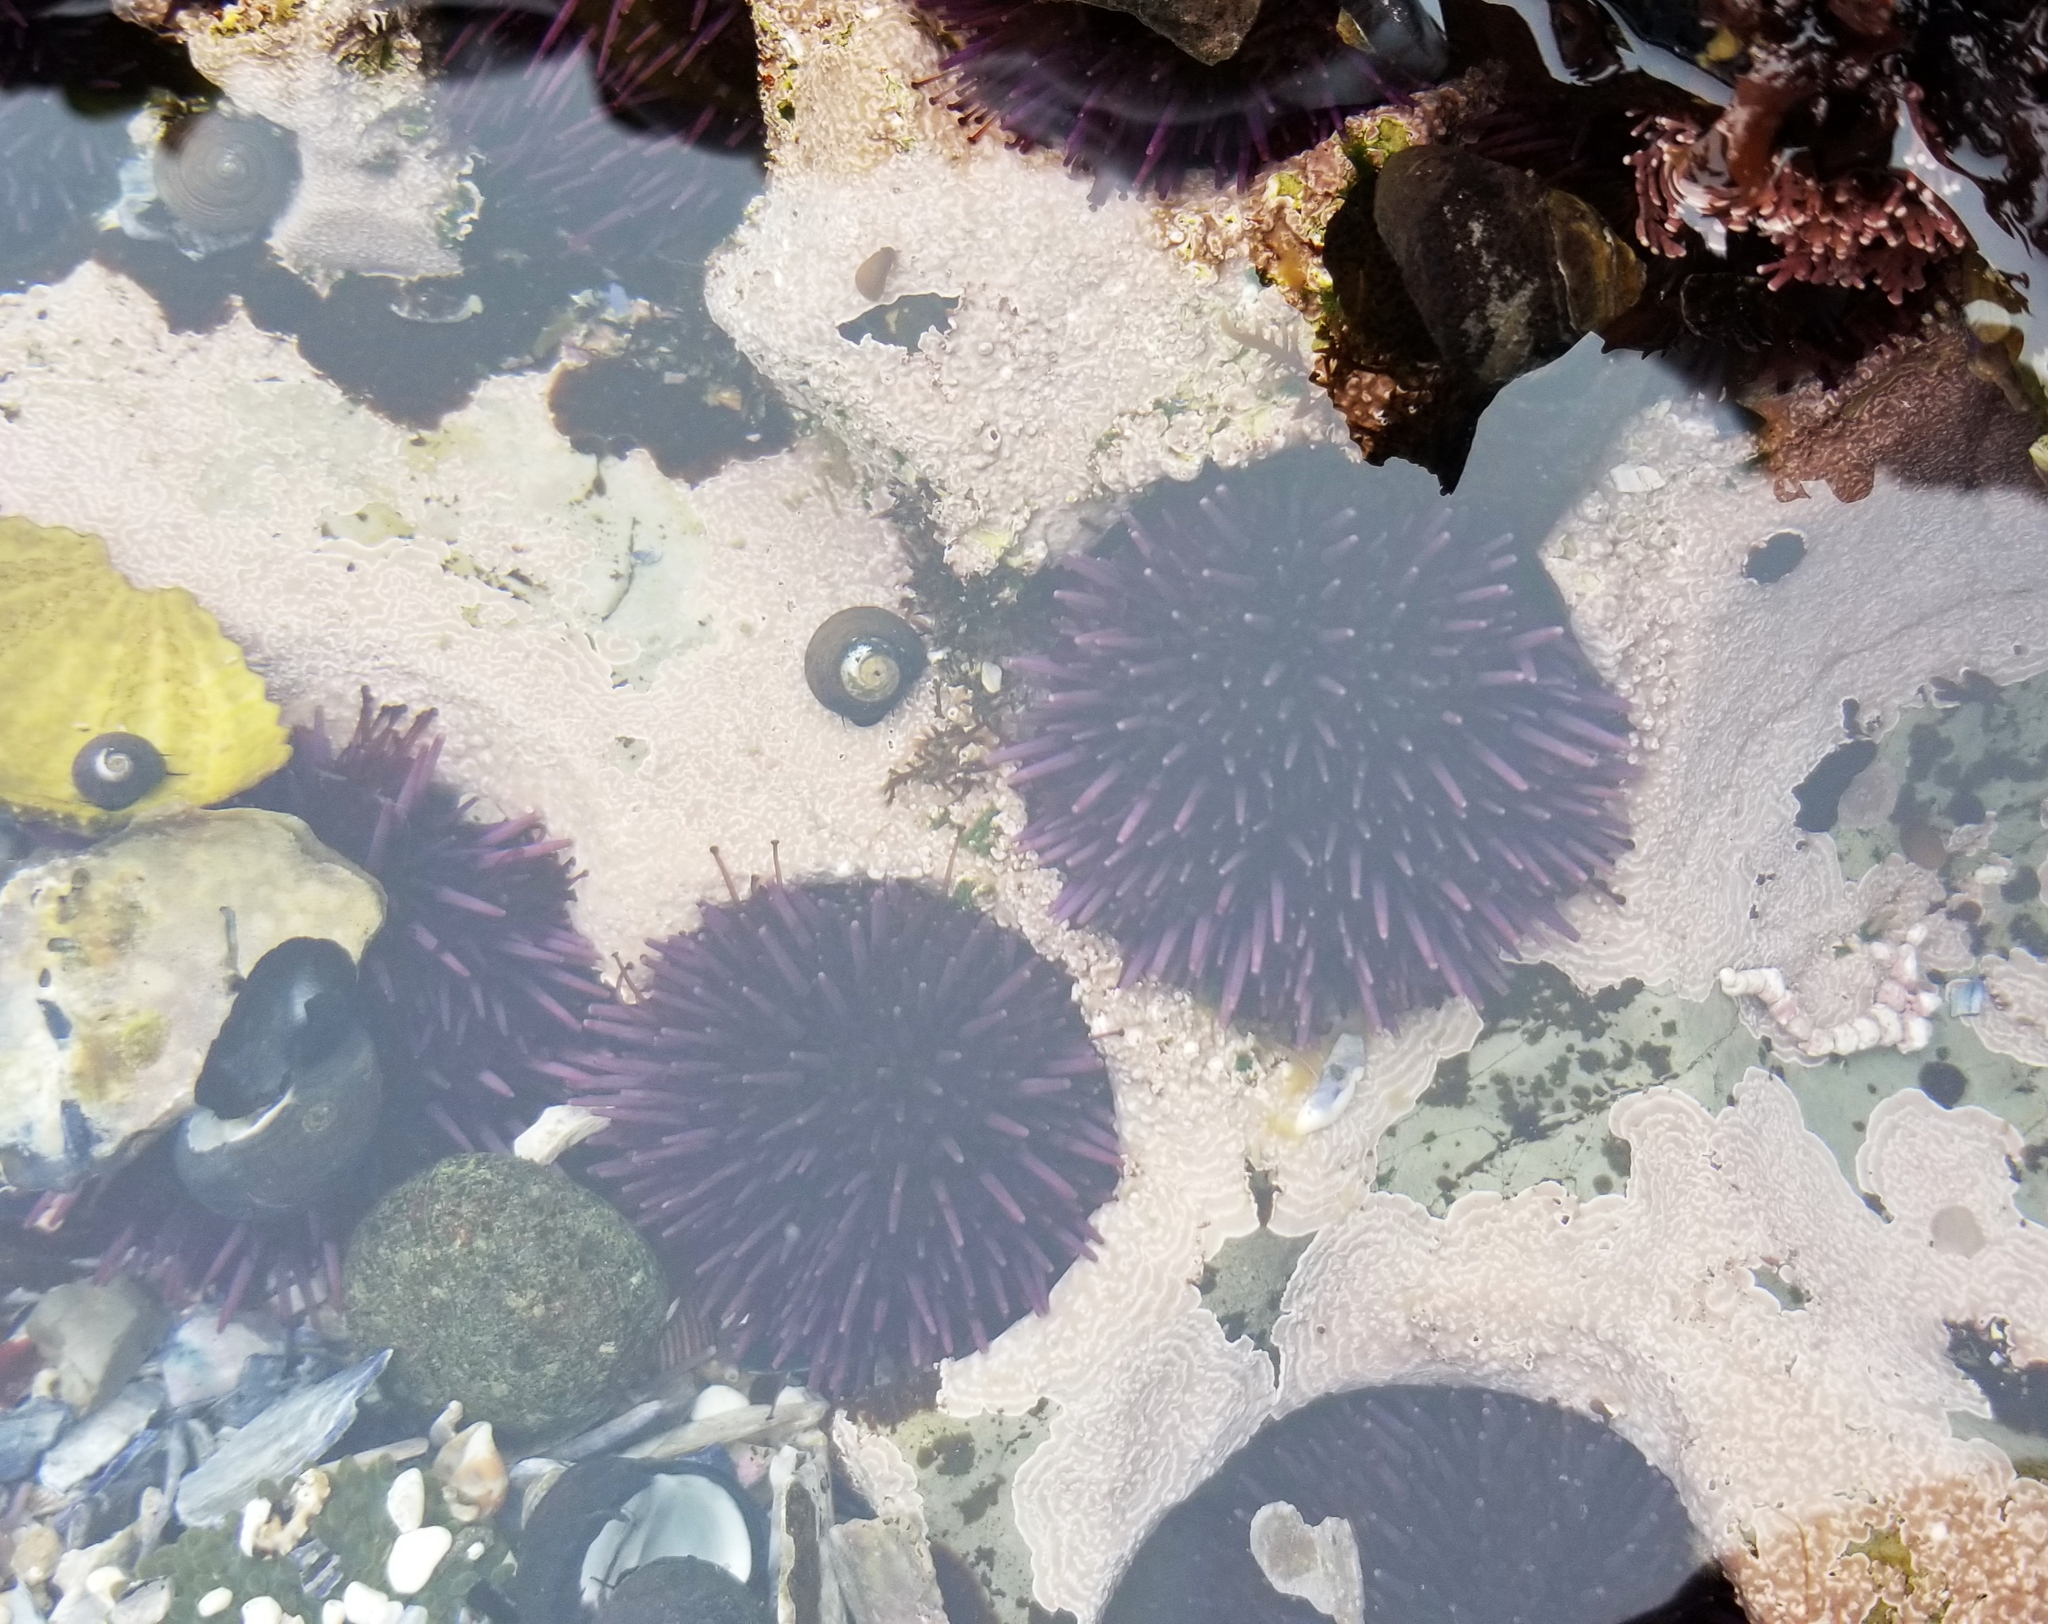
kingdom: Animalia
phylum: Echinodermata
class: Echinoidea
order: Camarodonta
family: Strongylocentrotidae
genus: Strongylocentrotus
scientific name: Strongylocentrotus purpuratus
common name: Purple sea urchin
